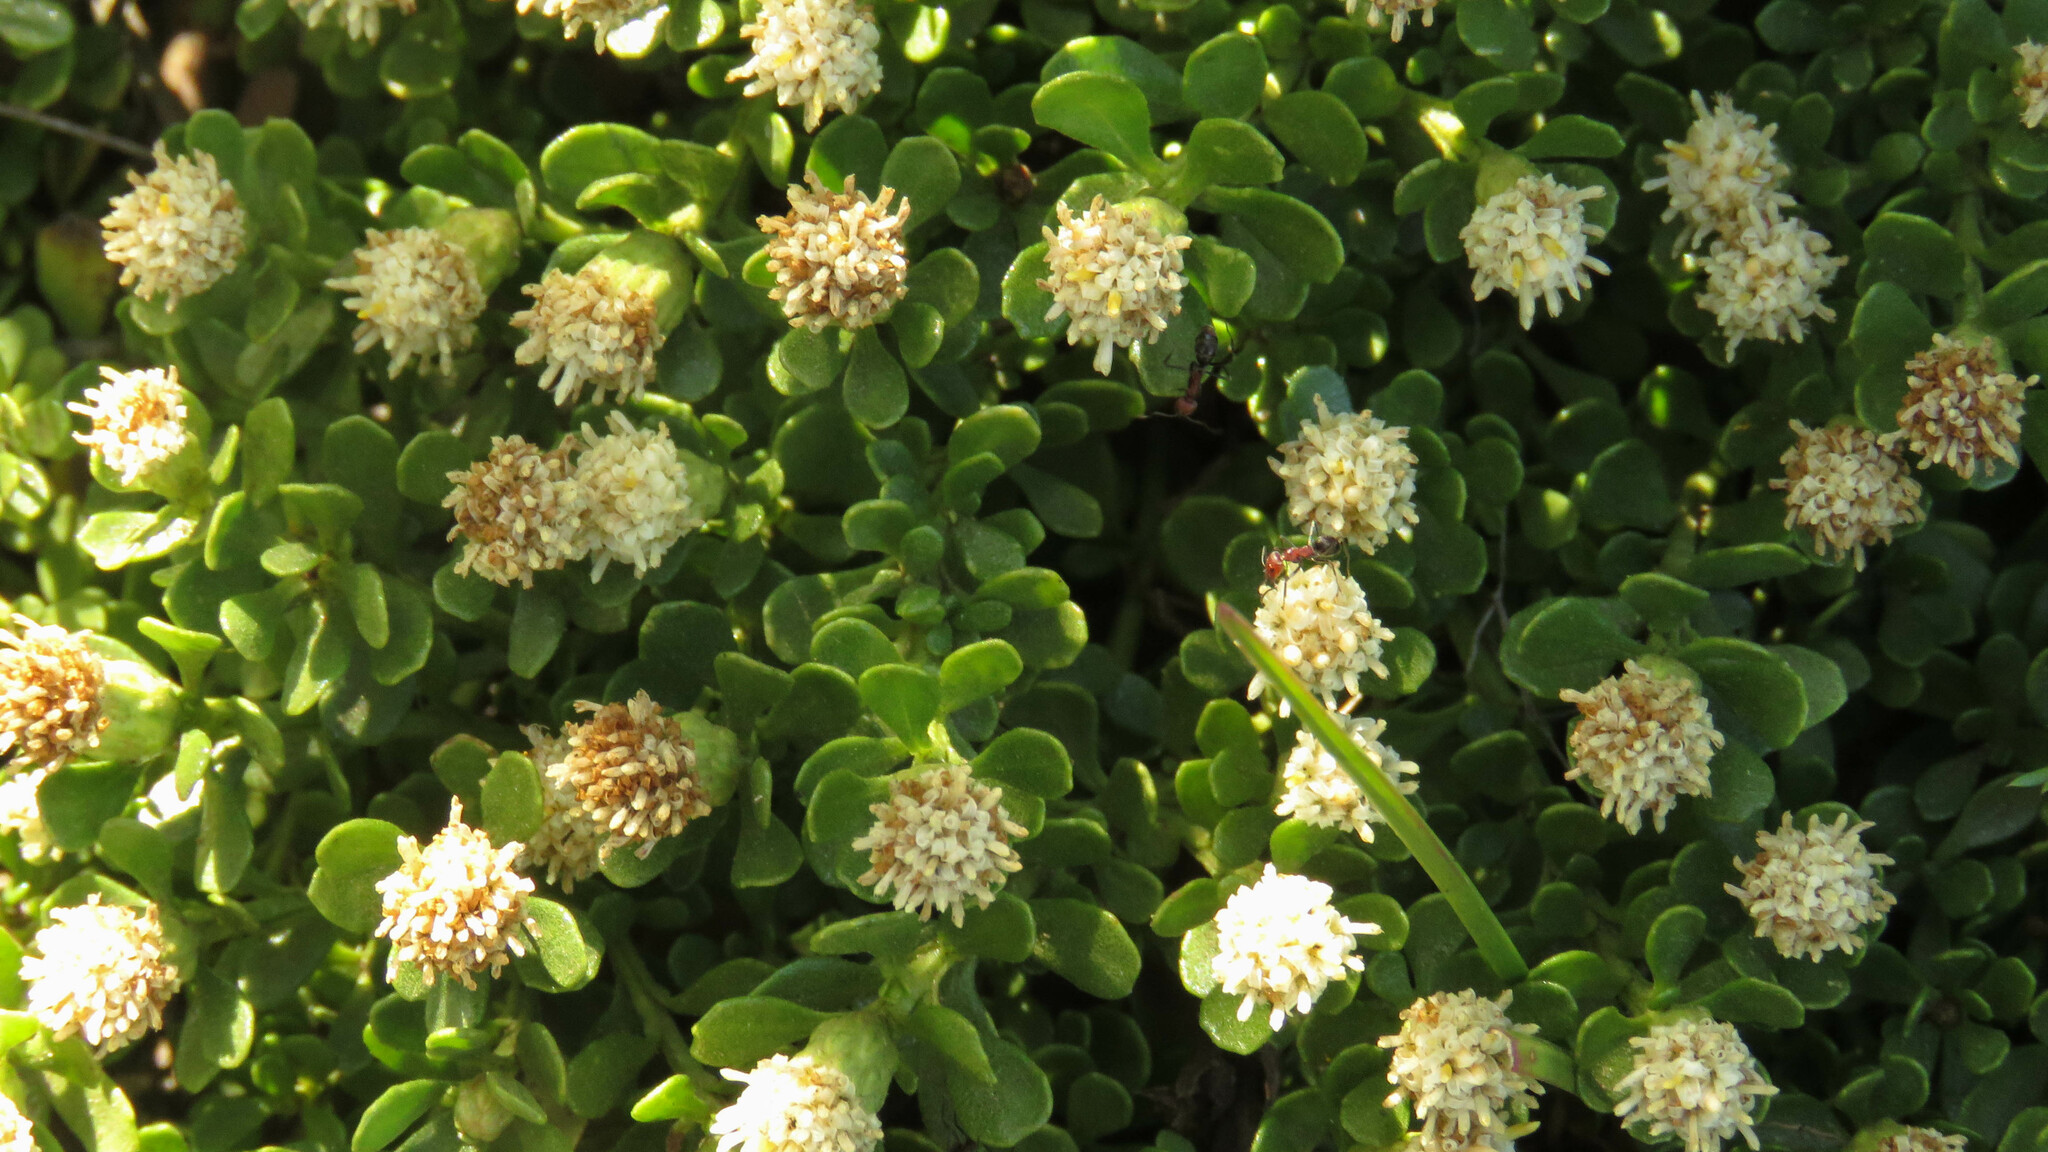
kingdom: Plantae
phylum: Tracheophyta
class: Magnoliopsida
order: Asterales
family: Asteraceae
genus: Baccharis
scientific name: Baccharis magellanica
